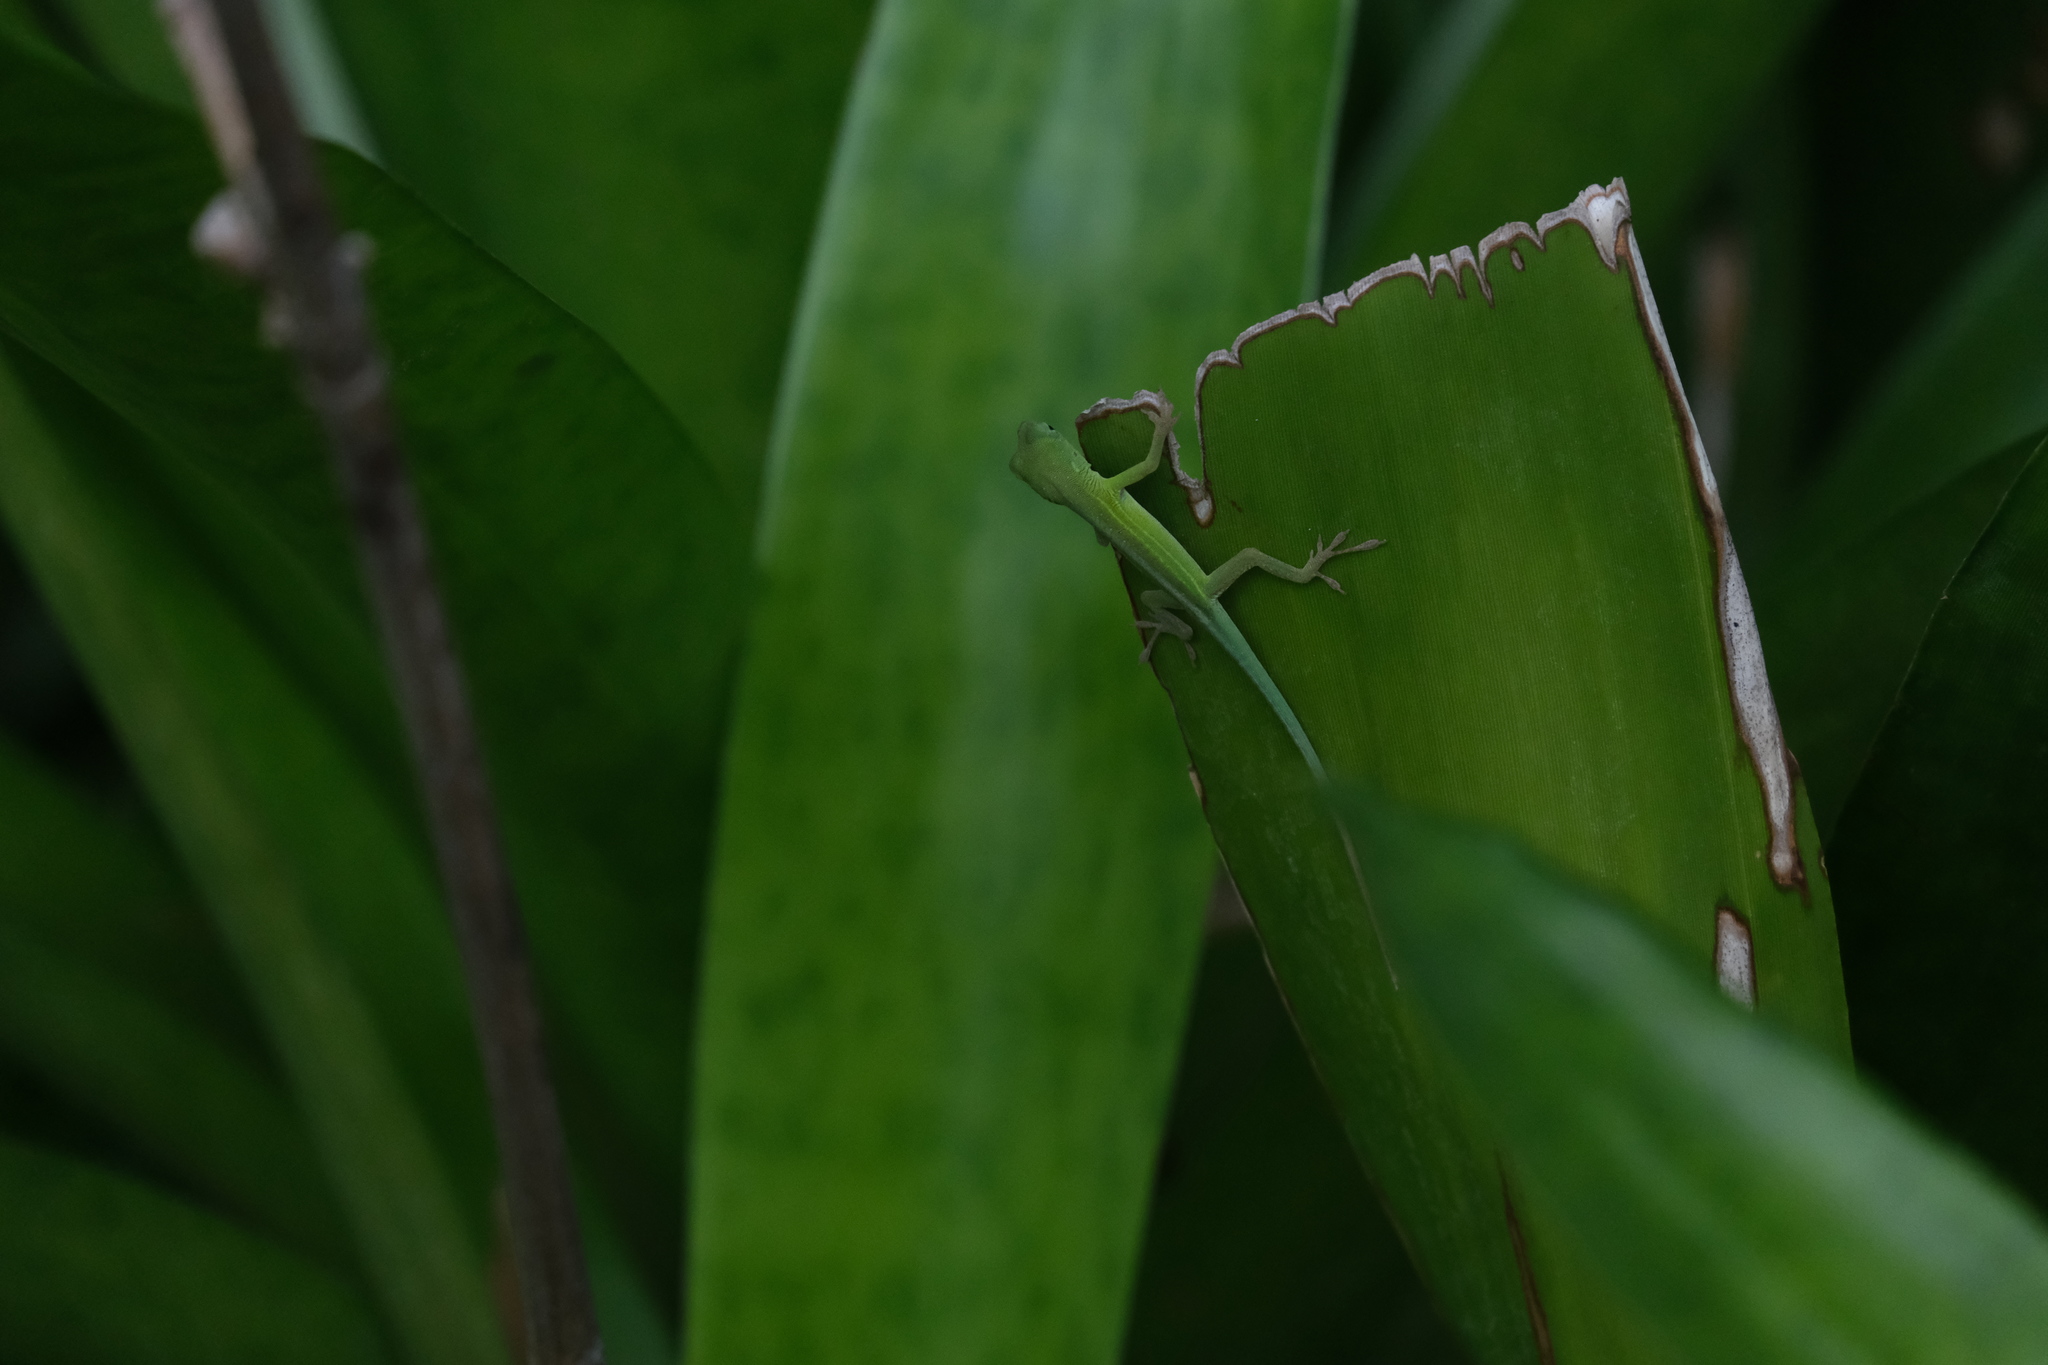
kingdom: Animalia
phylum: Chordata
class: Squamata
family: Dactyloidae
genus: Anolis
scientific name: Anolis chlorocyanus
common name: Hispaniolan green anole
